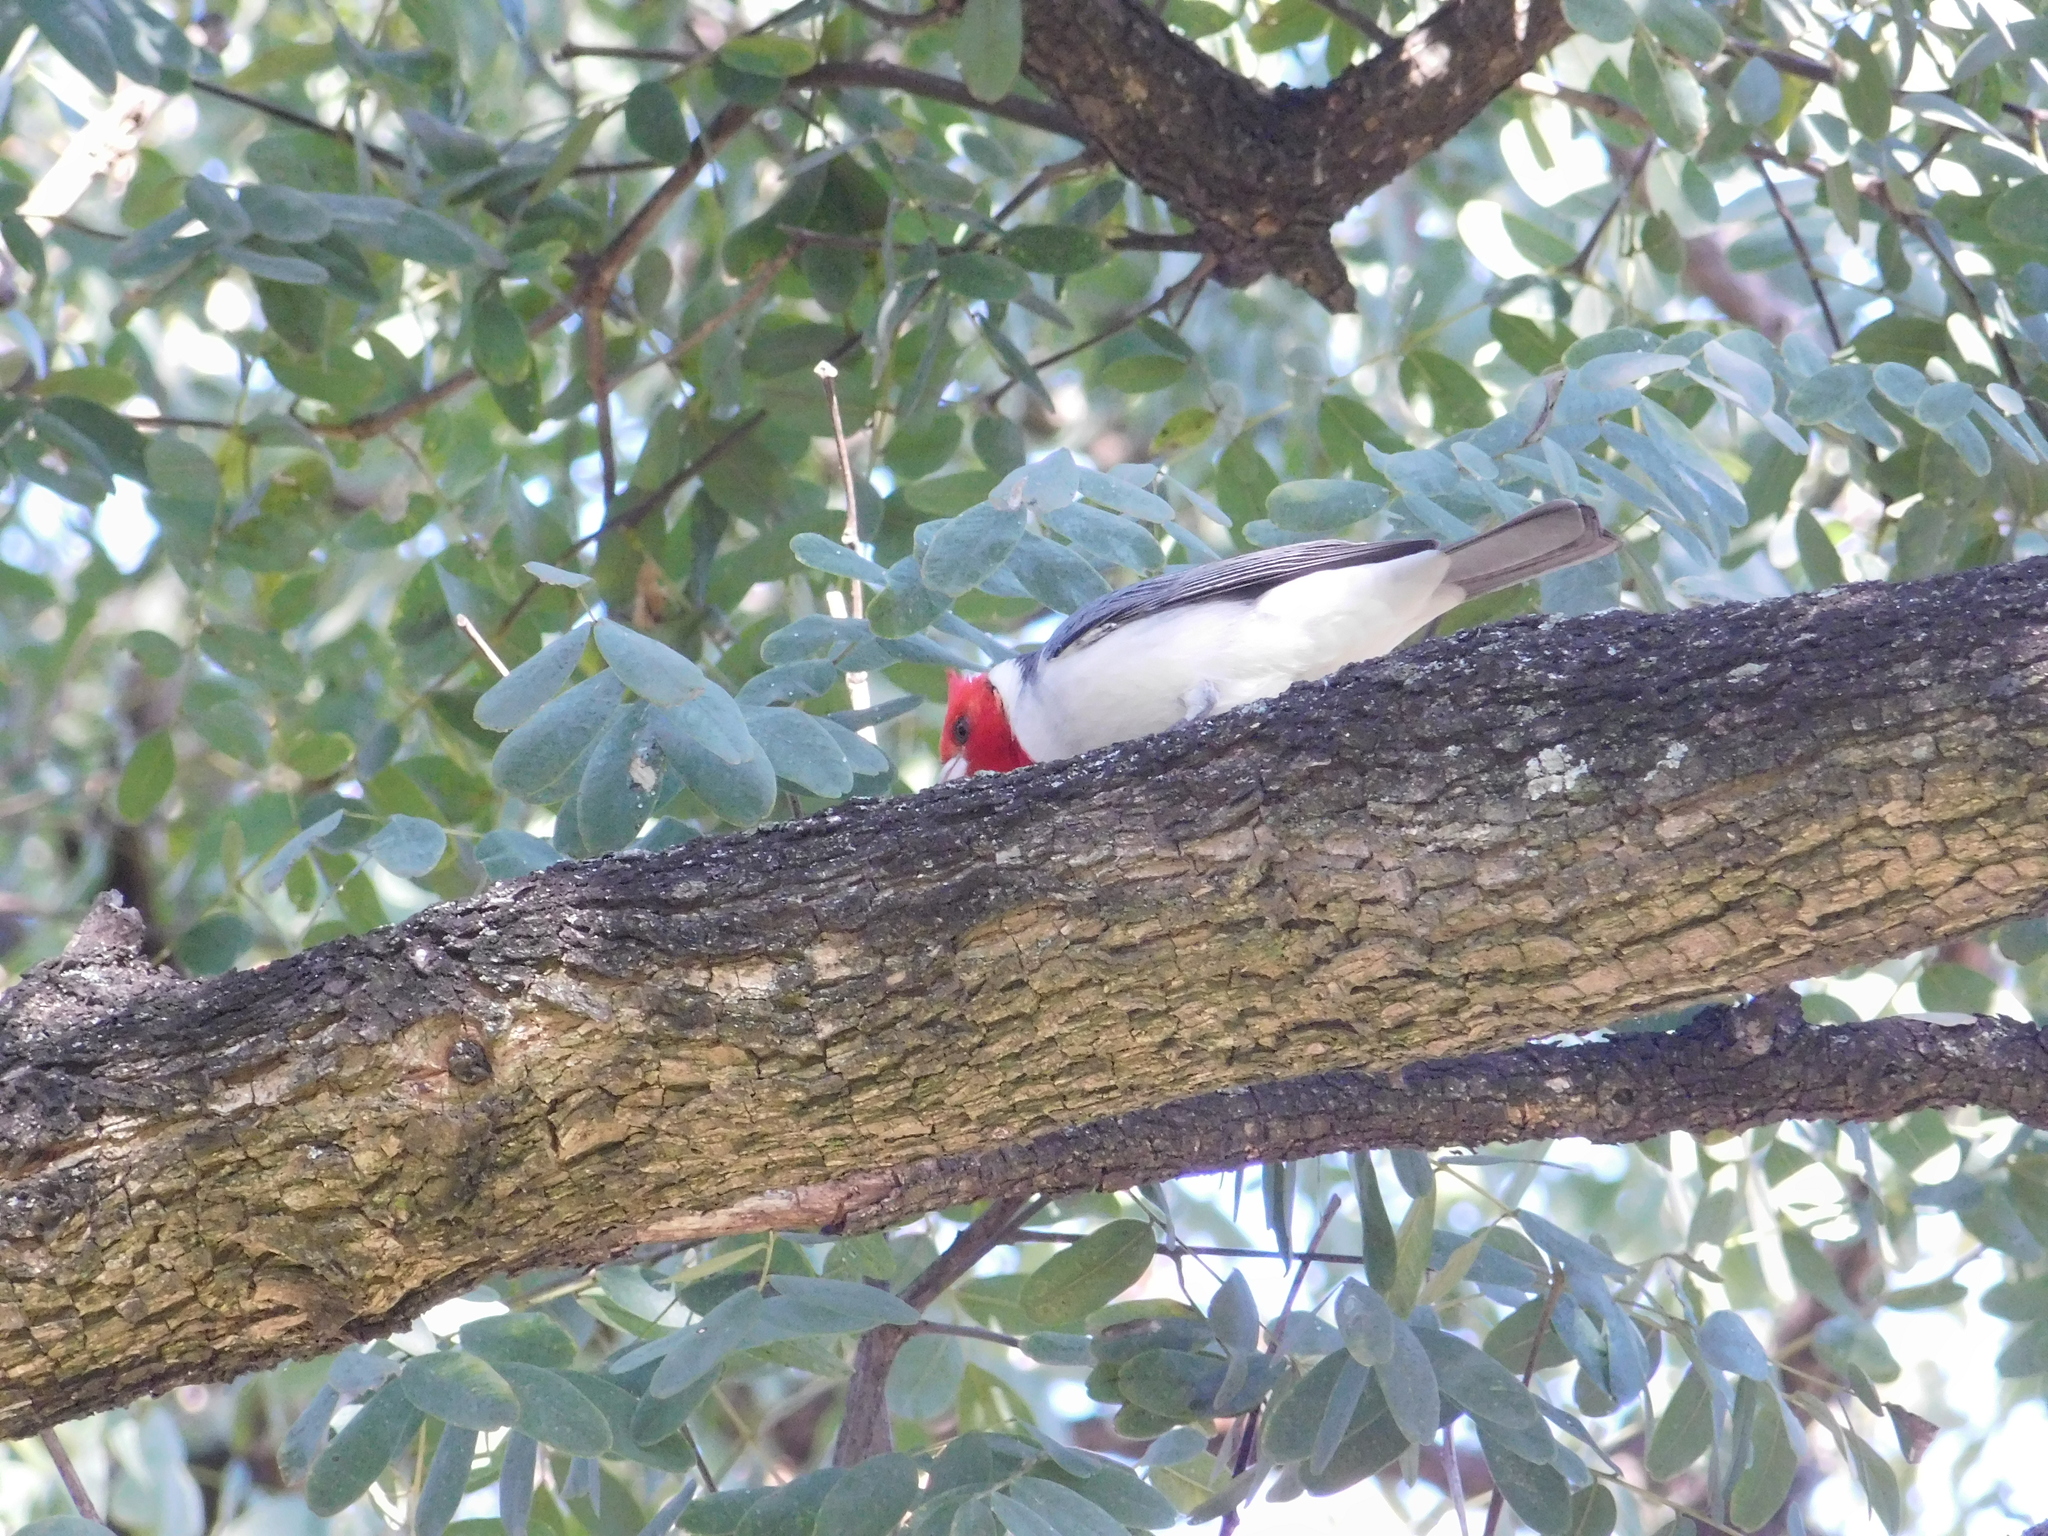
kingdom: Animalia
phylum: Chordata
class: Aves
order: Passeriformes
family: Thraupidae
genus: Paroaria
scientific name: Paroaria coronata
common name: Red-crested cardinal
